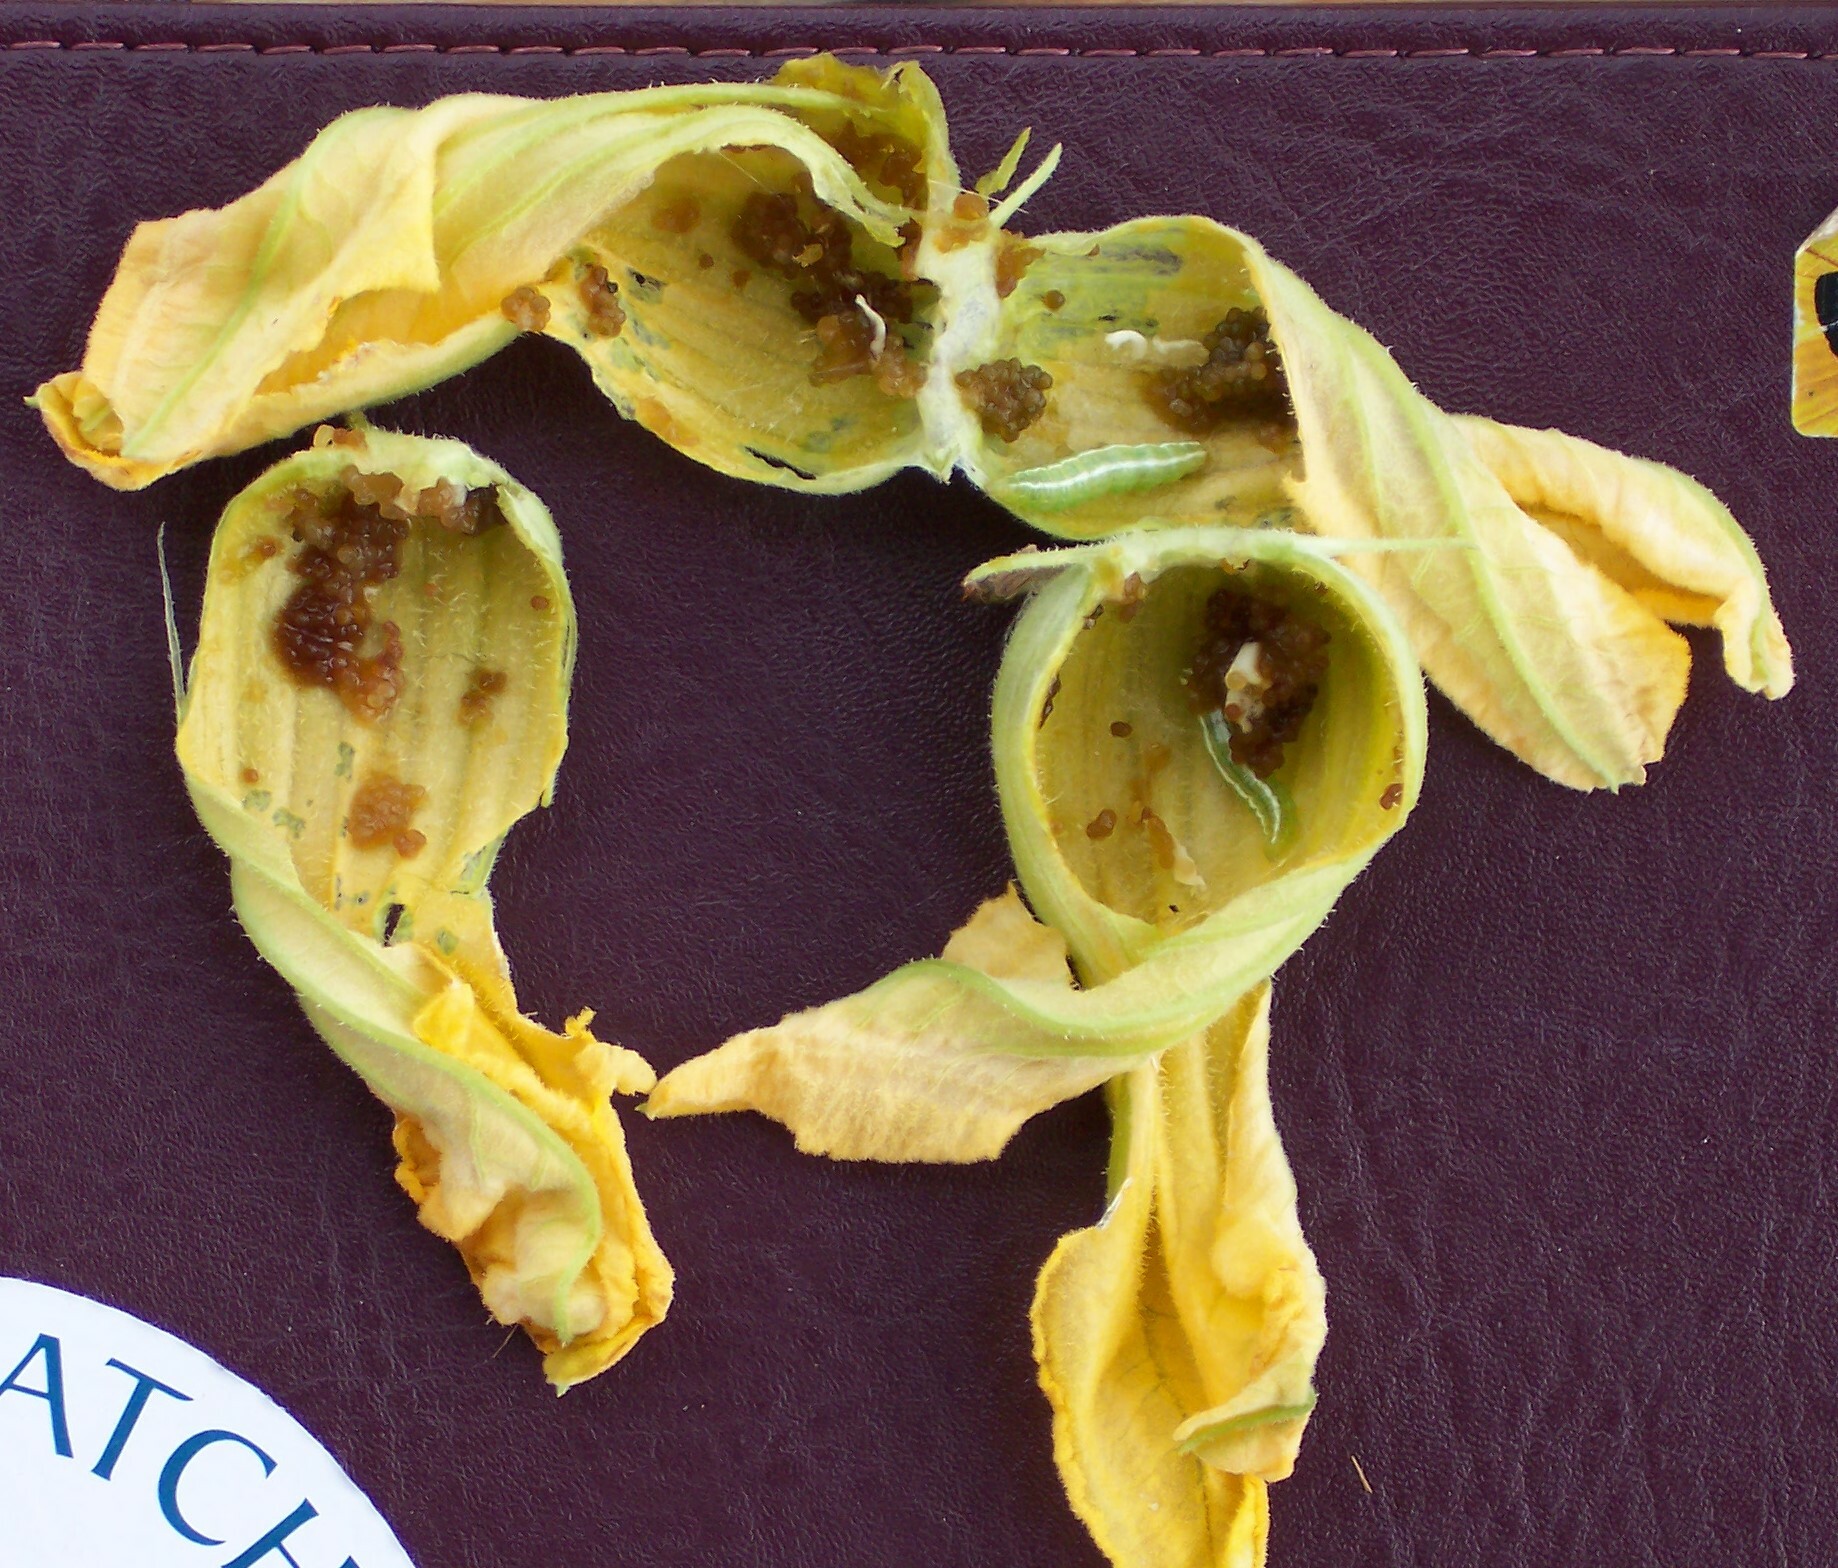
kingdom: Animalia
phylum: Arthropoda
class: Insecta
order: Lepidoptera
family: Crambidae
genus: Diaphania
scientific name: Diaphania hyalinata
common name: Melonworm
